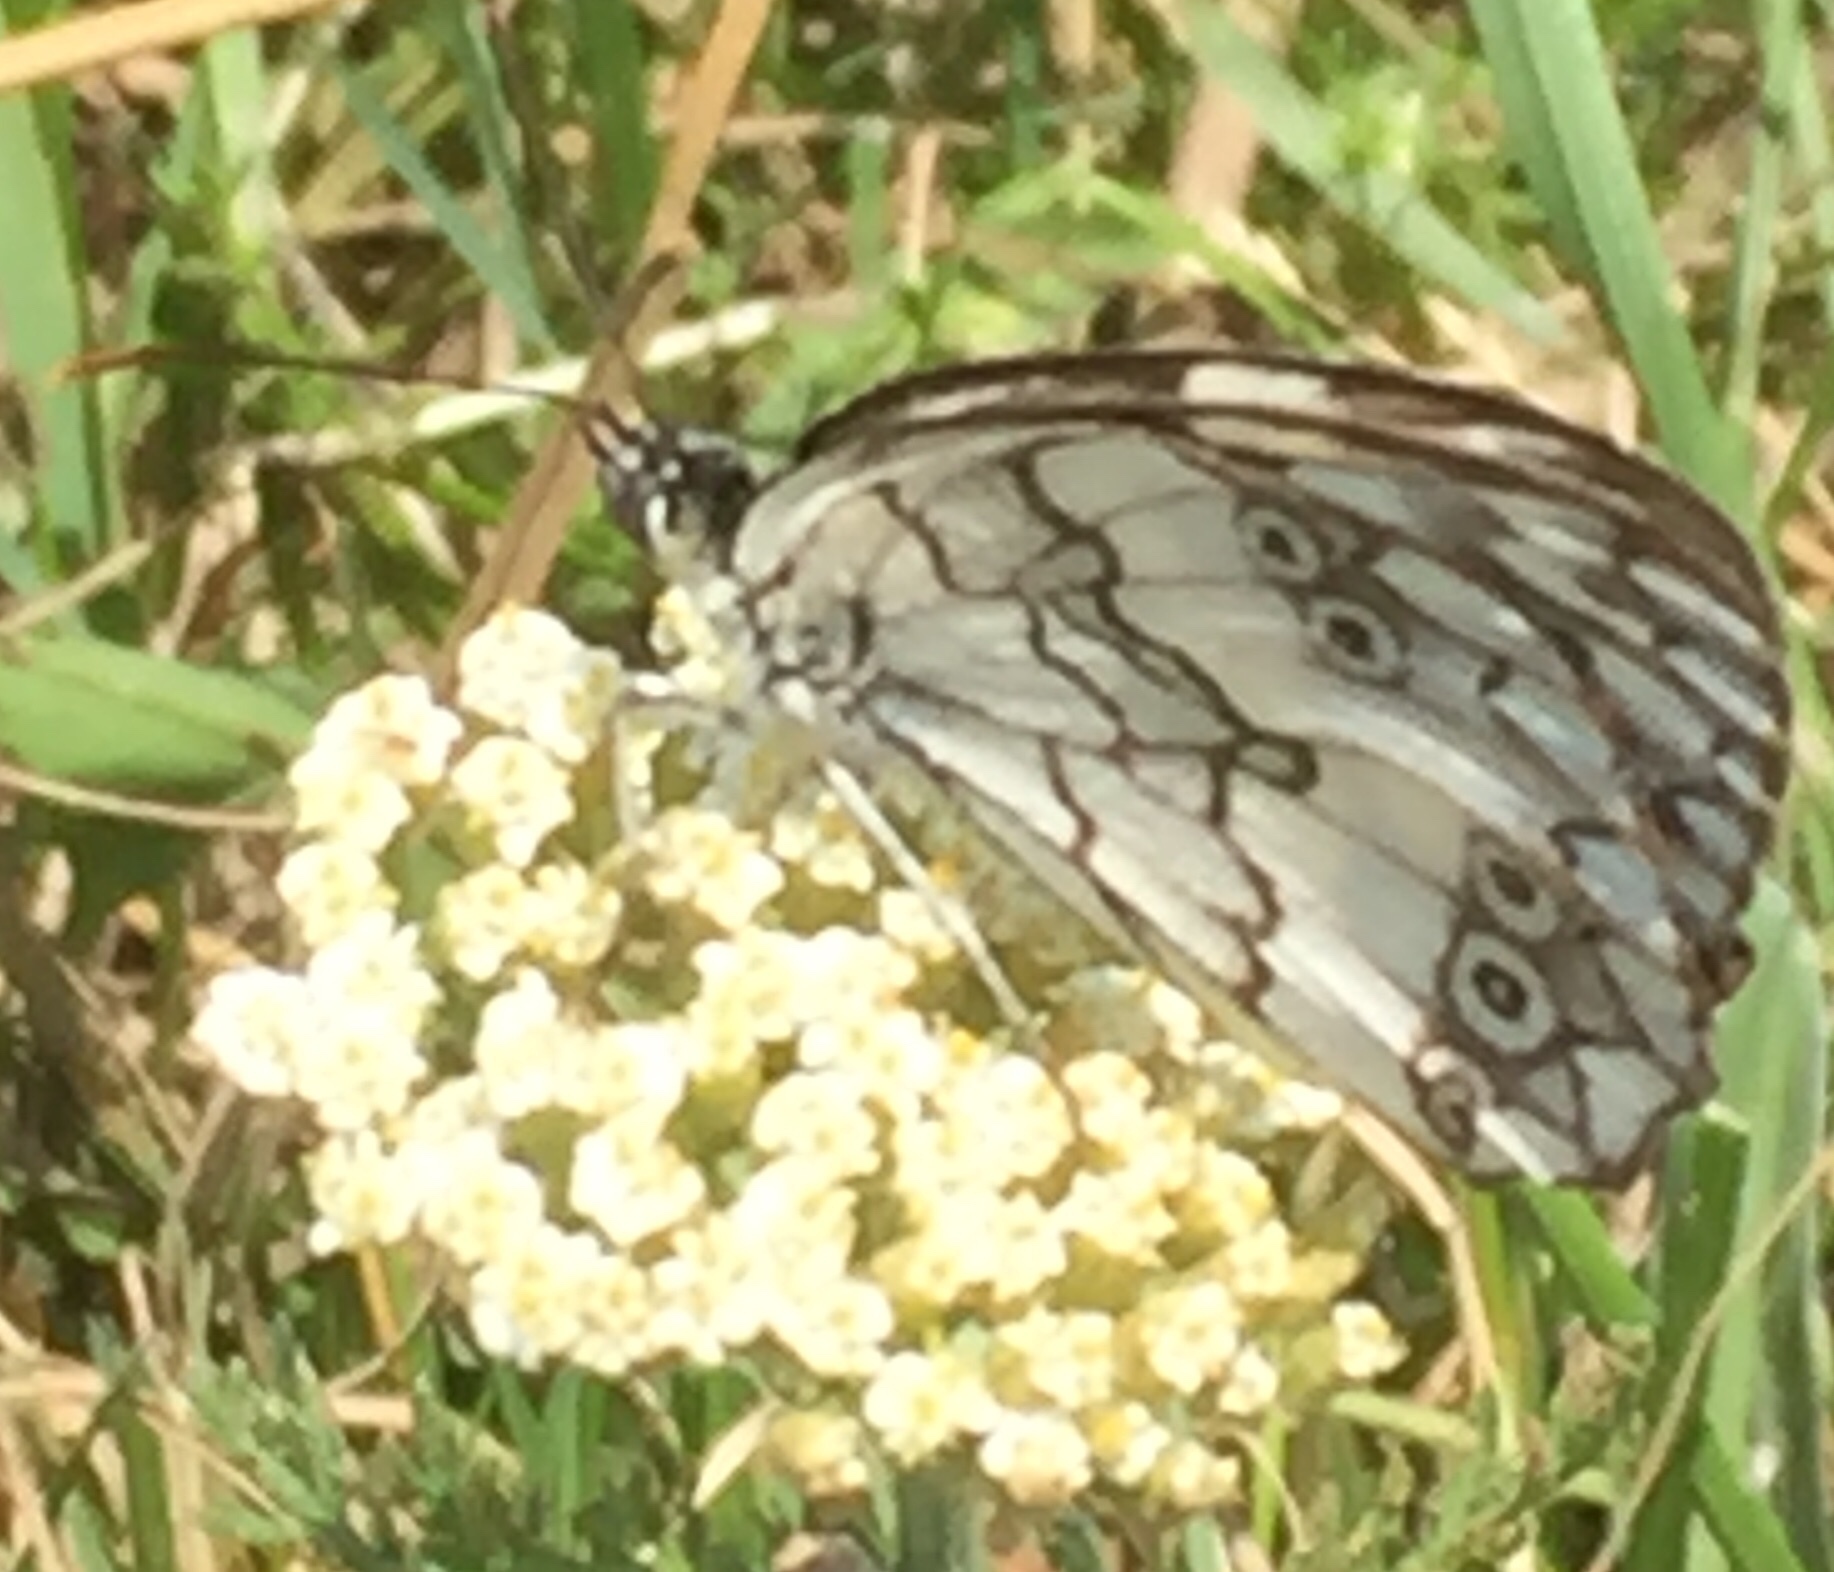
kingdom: Animalia
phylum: Arthropoda
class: Insecta
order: Lepidoptera
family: Nymphalidae
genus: Melanargia
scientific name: Melanargia larissa
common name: Balkan marbled white
